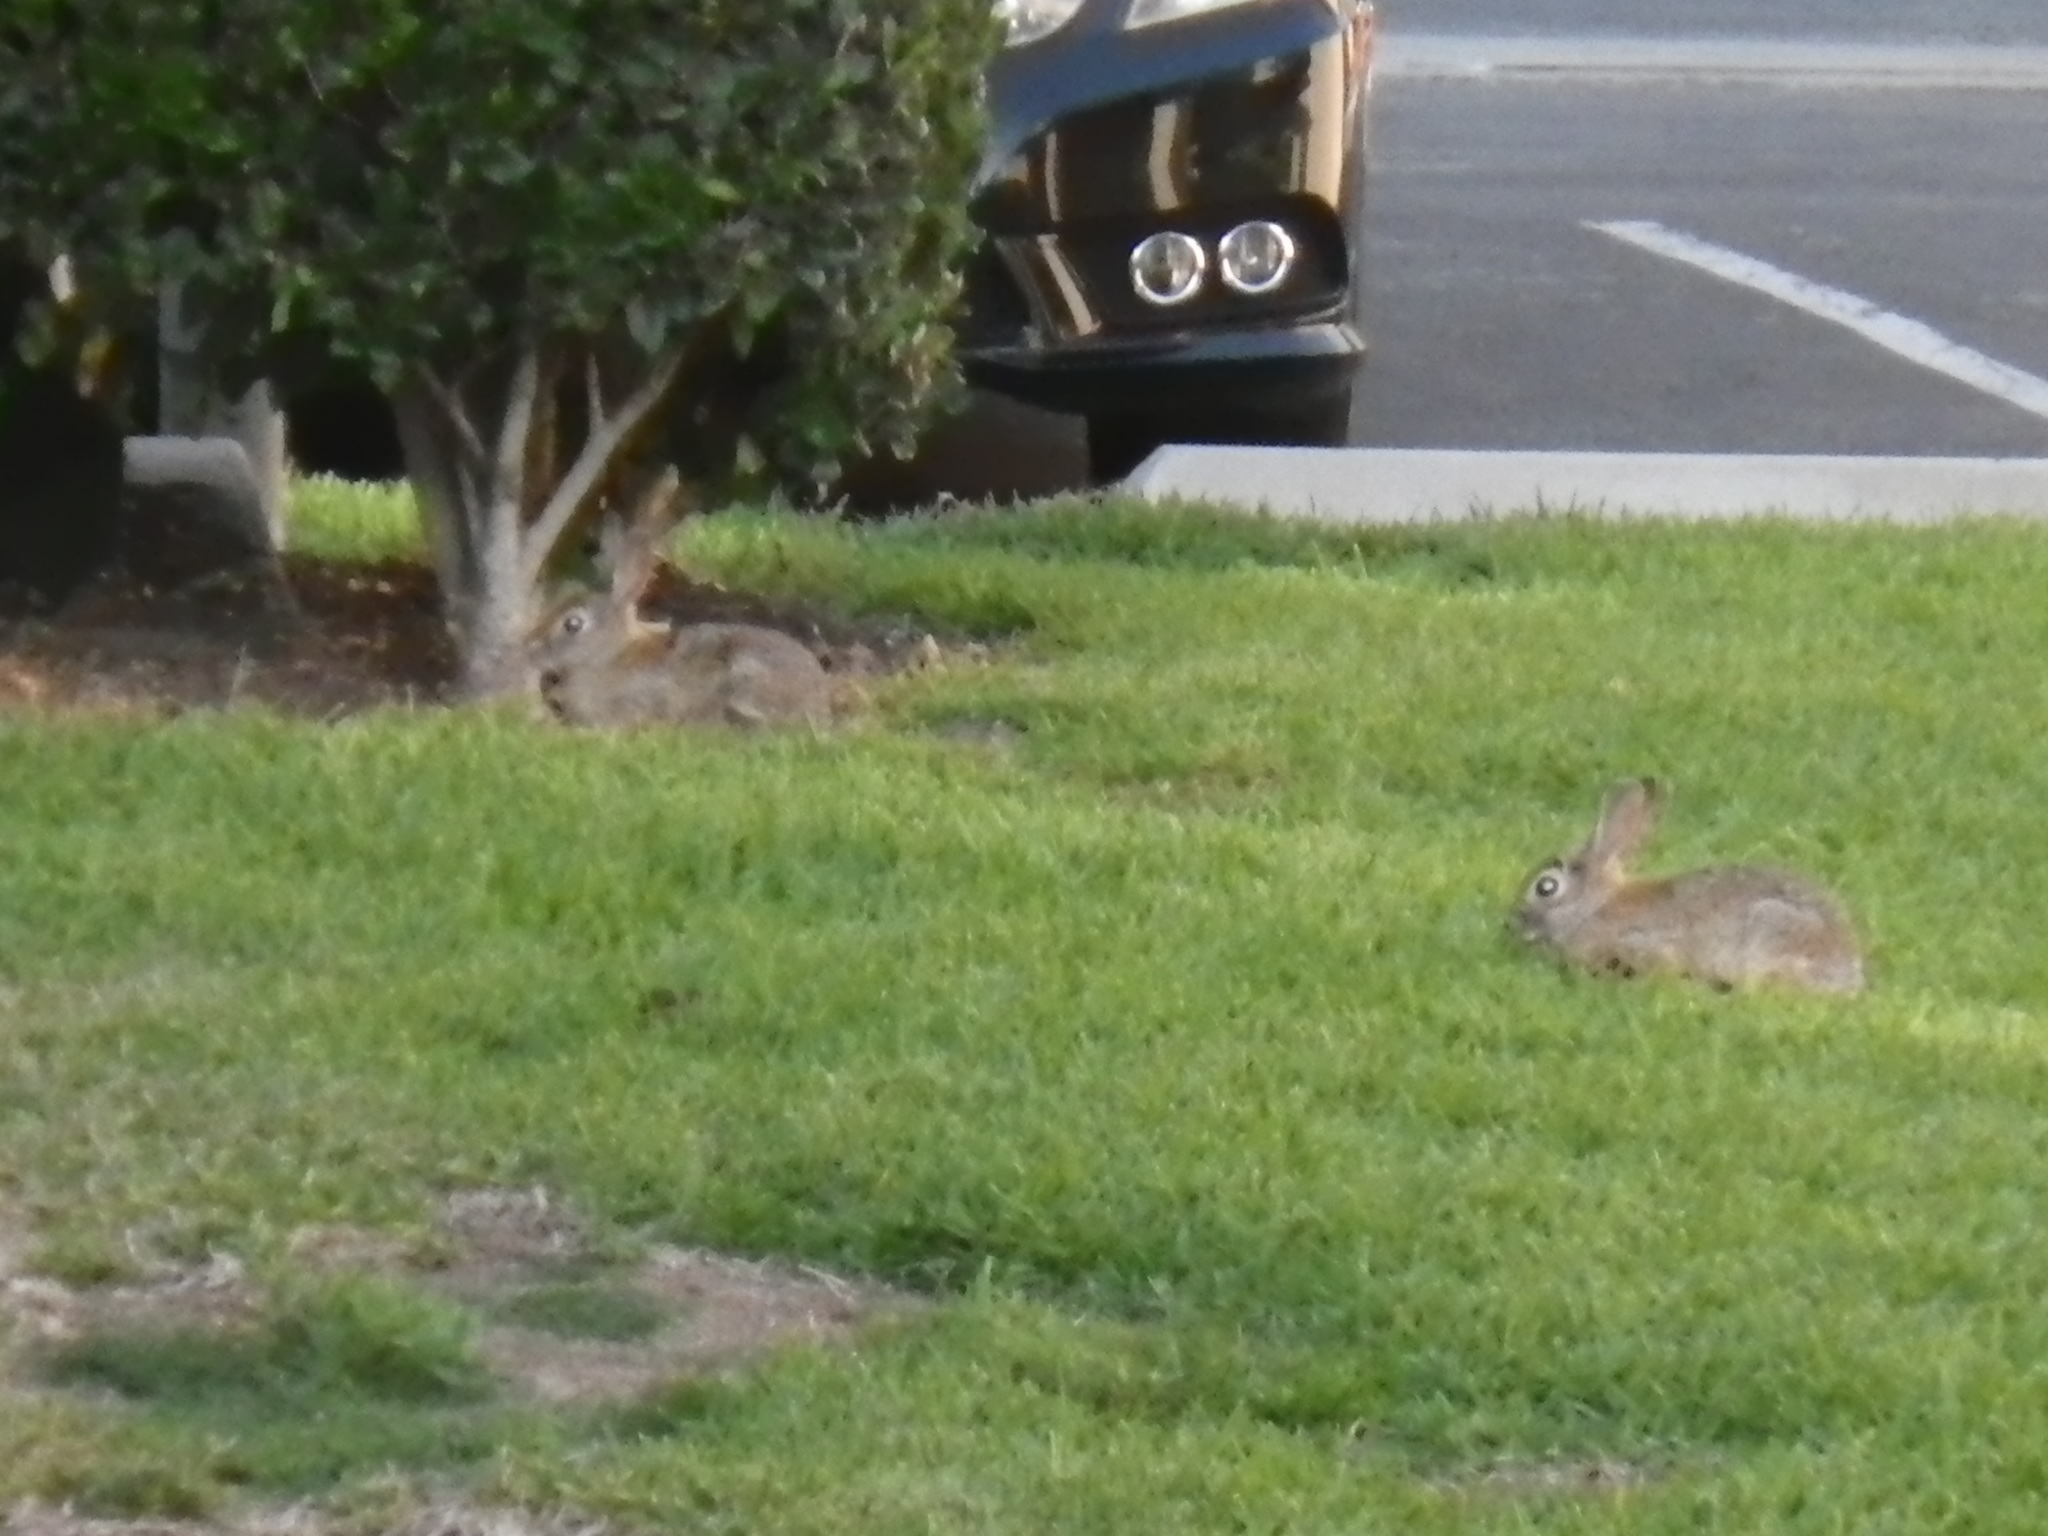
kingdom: Animalia
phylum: Chordata
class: Mammalia
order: Lagomorpha
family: Leporidae
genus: Sylvilagus
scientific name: Sylvilagus audubonii
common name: Desert cottontail
